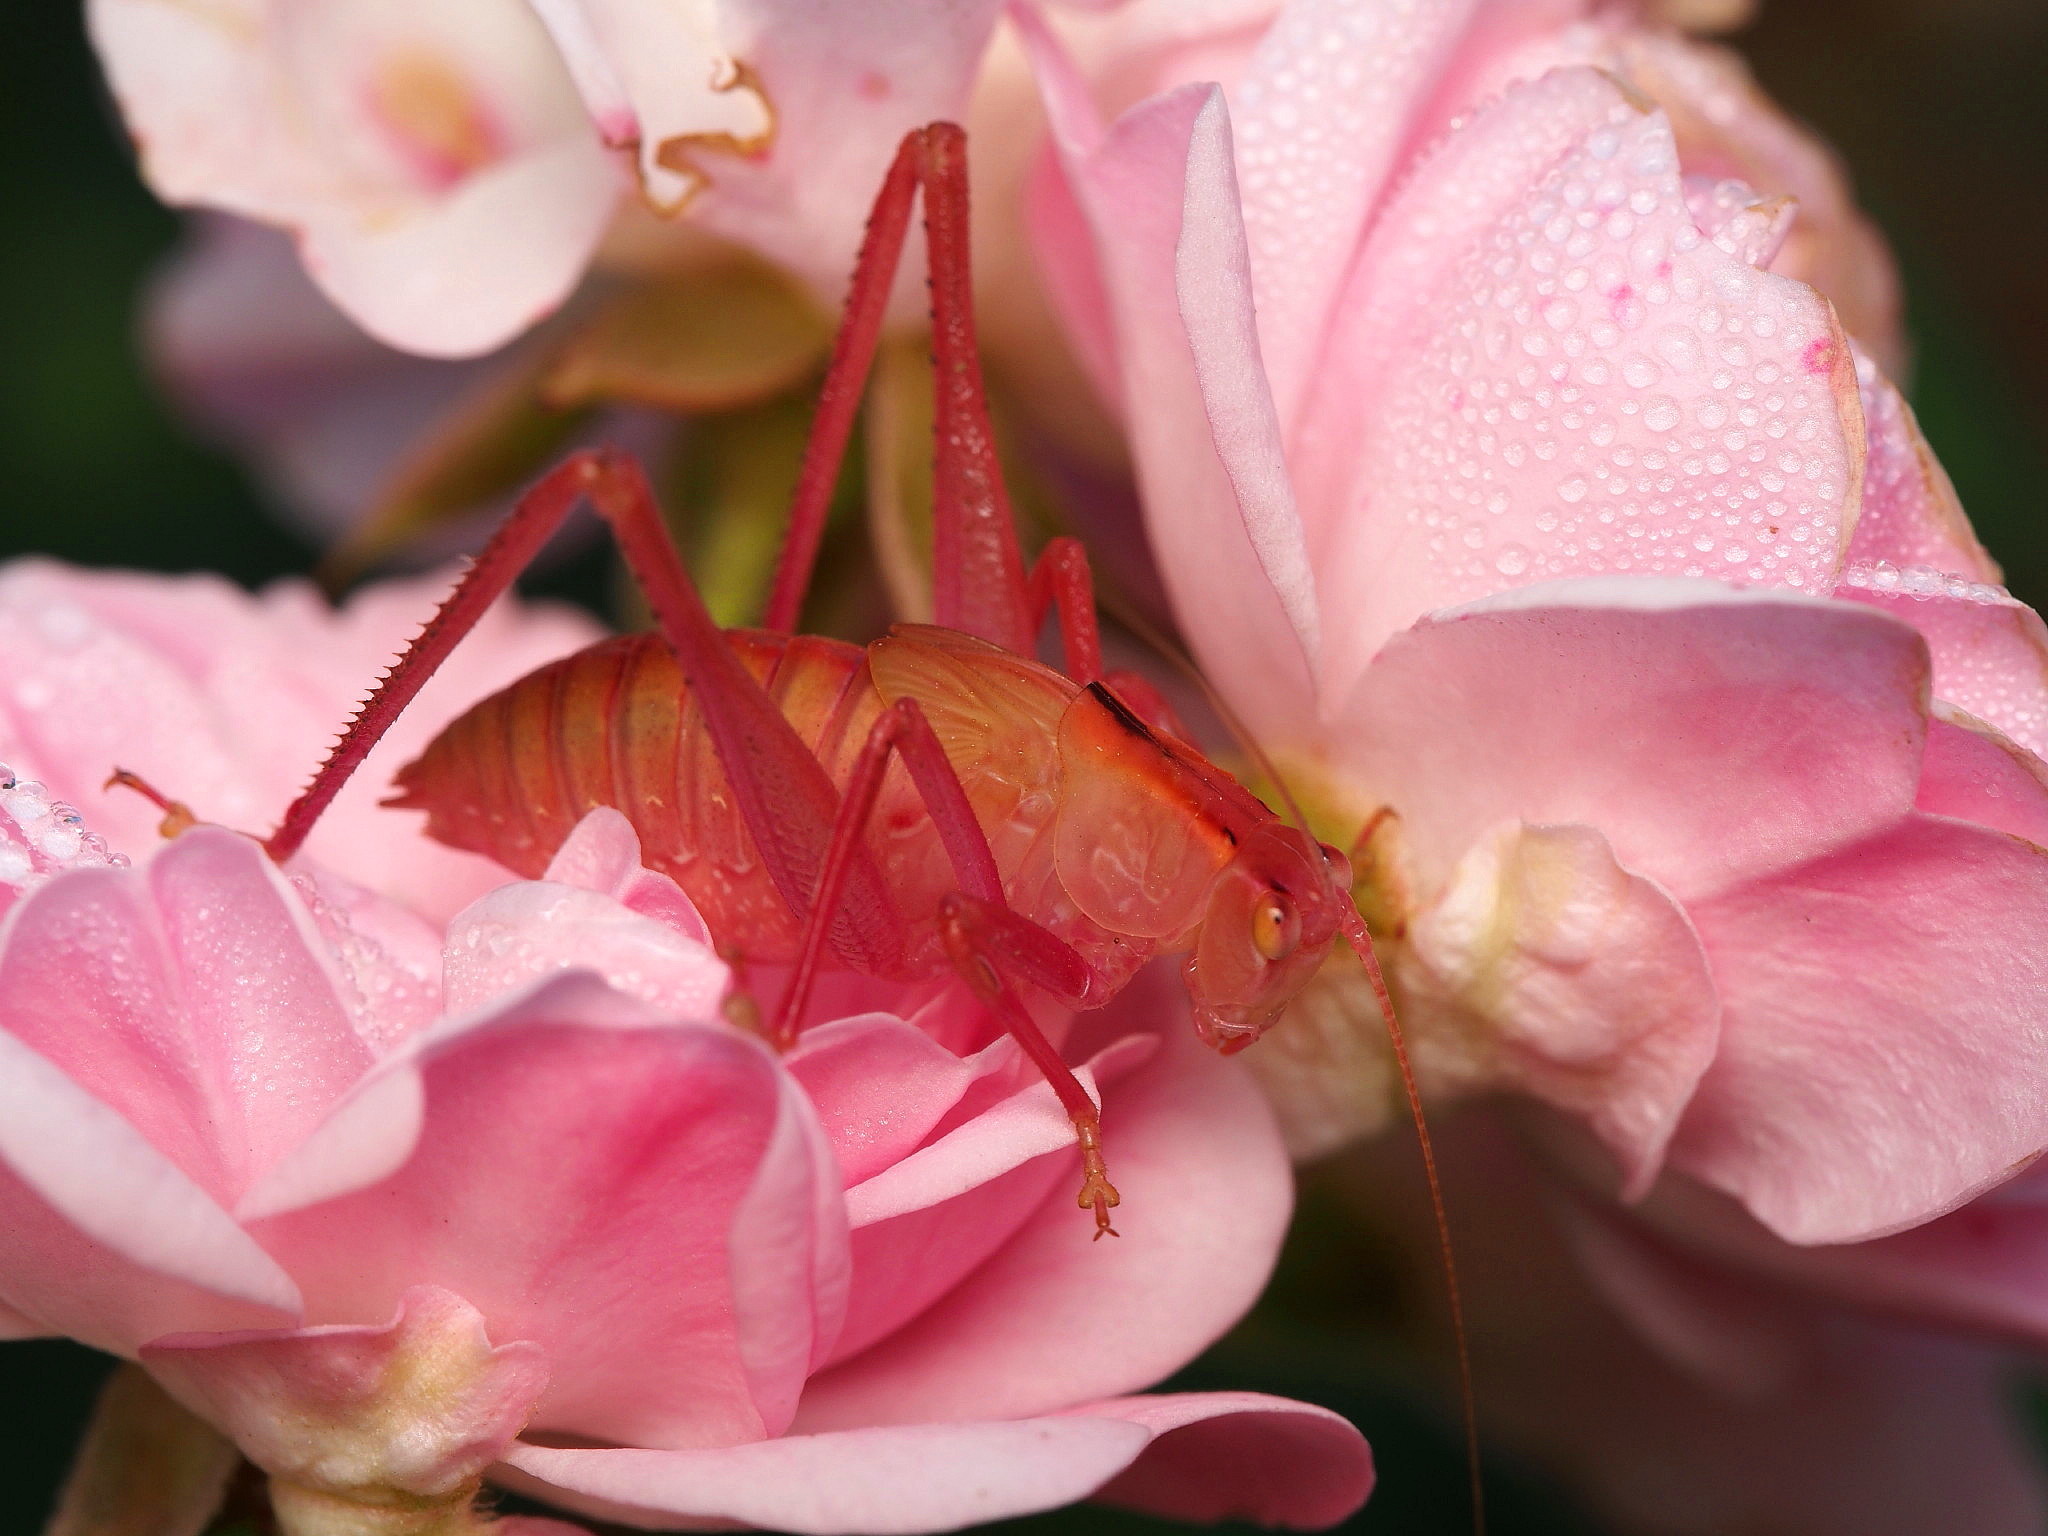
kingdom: Animalia
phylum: Arthropoda
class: Insecta
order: Orthoptera
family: Tettigoniidae
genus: Caedicia
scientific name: Caedicia simplex
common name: Common garden katydid
